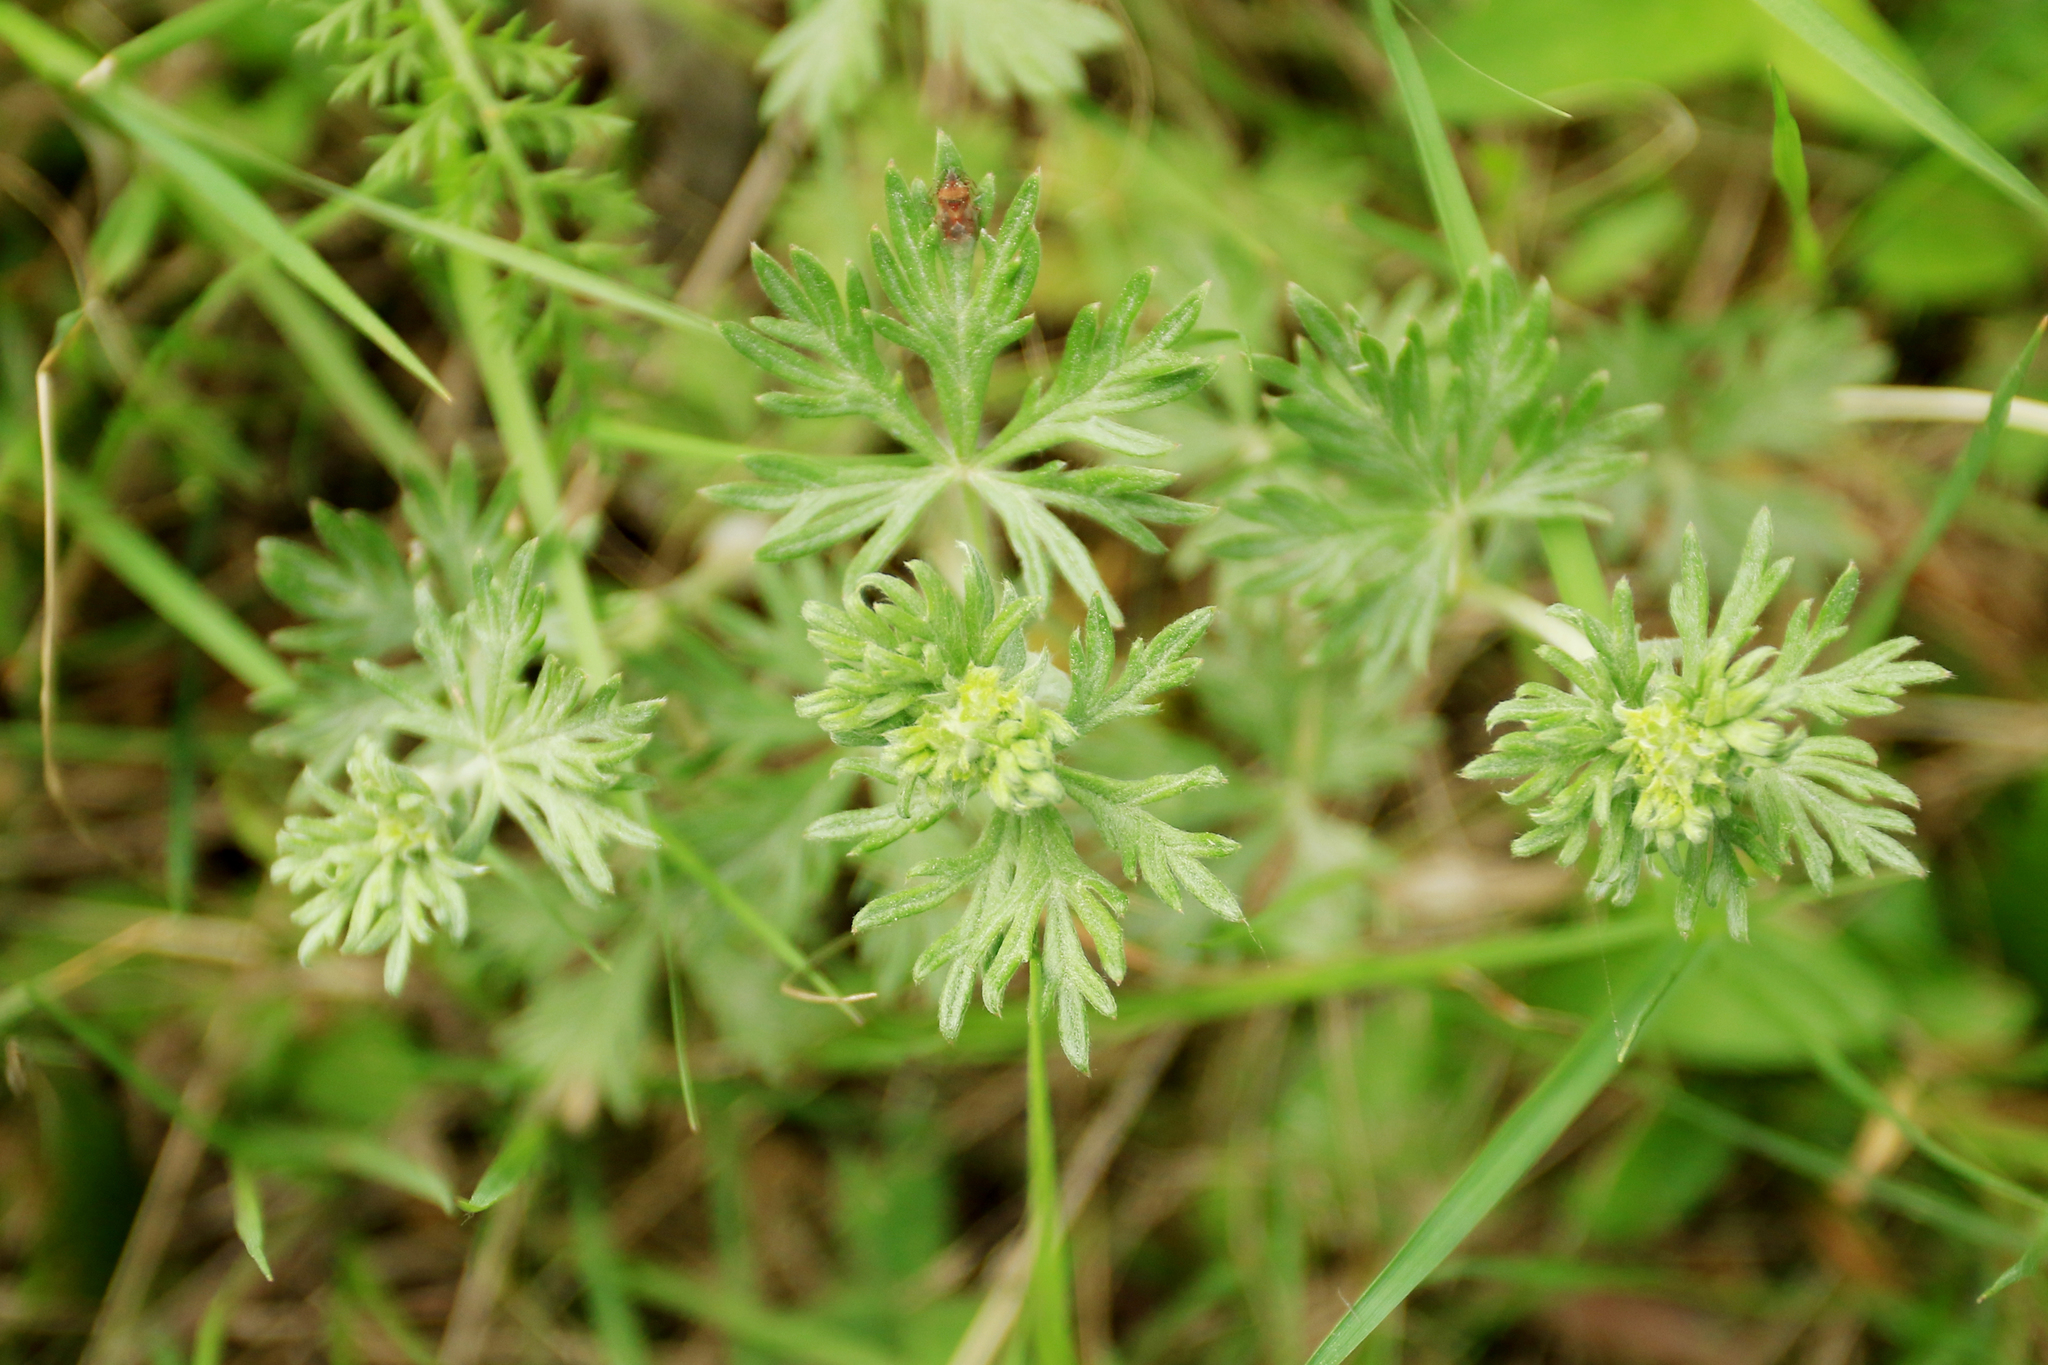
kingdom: Plantae
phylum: Tracheophyta
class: Magnoliopsida
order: Rosales
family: Rosaceae
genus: Potentilla
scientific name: Potentilla argentea
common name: Hoary cinquefoil
